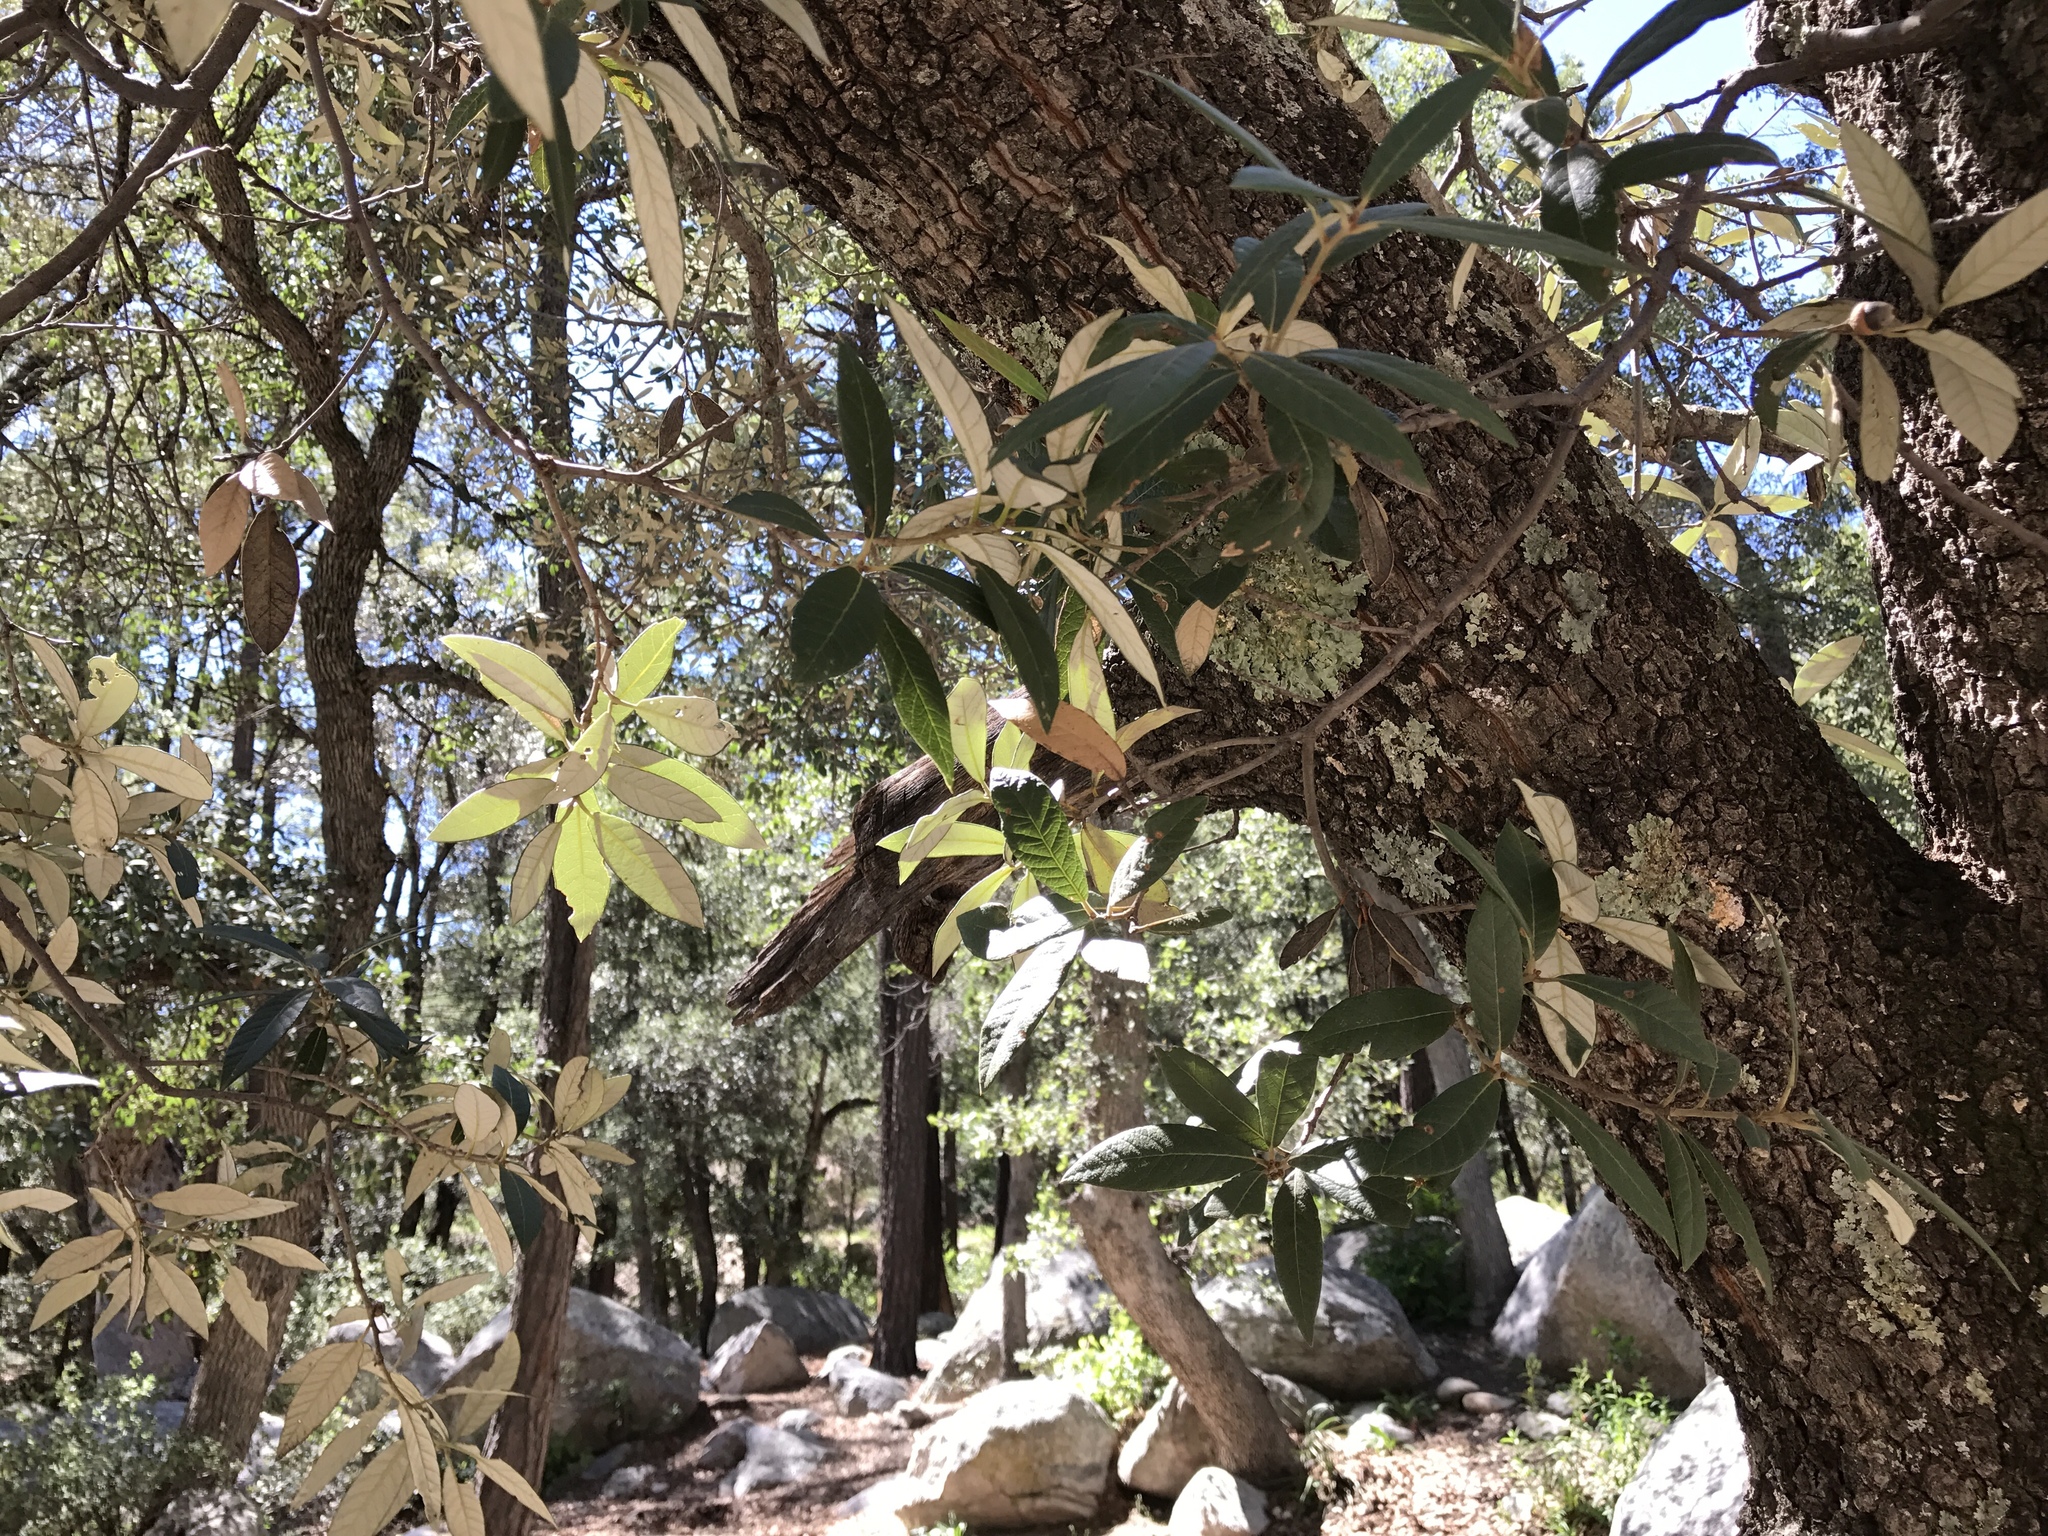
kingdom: Plantae
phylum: Tracheophyta
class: Magnoliopsida
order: Fagales
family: Fagaceae
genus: Quercus
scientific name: Quercus hypoleucoides
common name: Silverleaf oak
